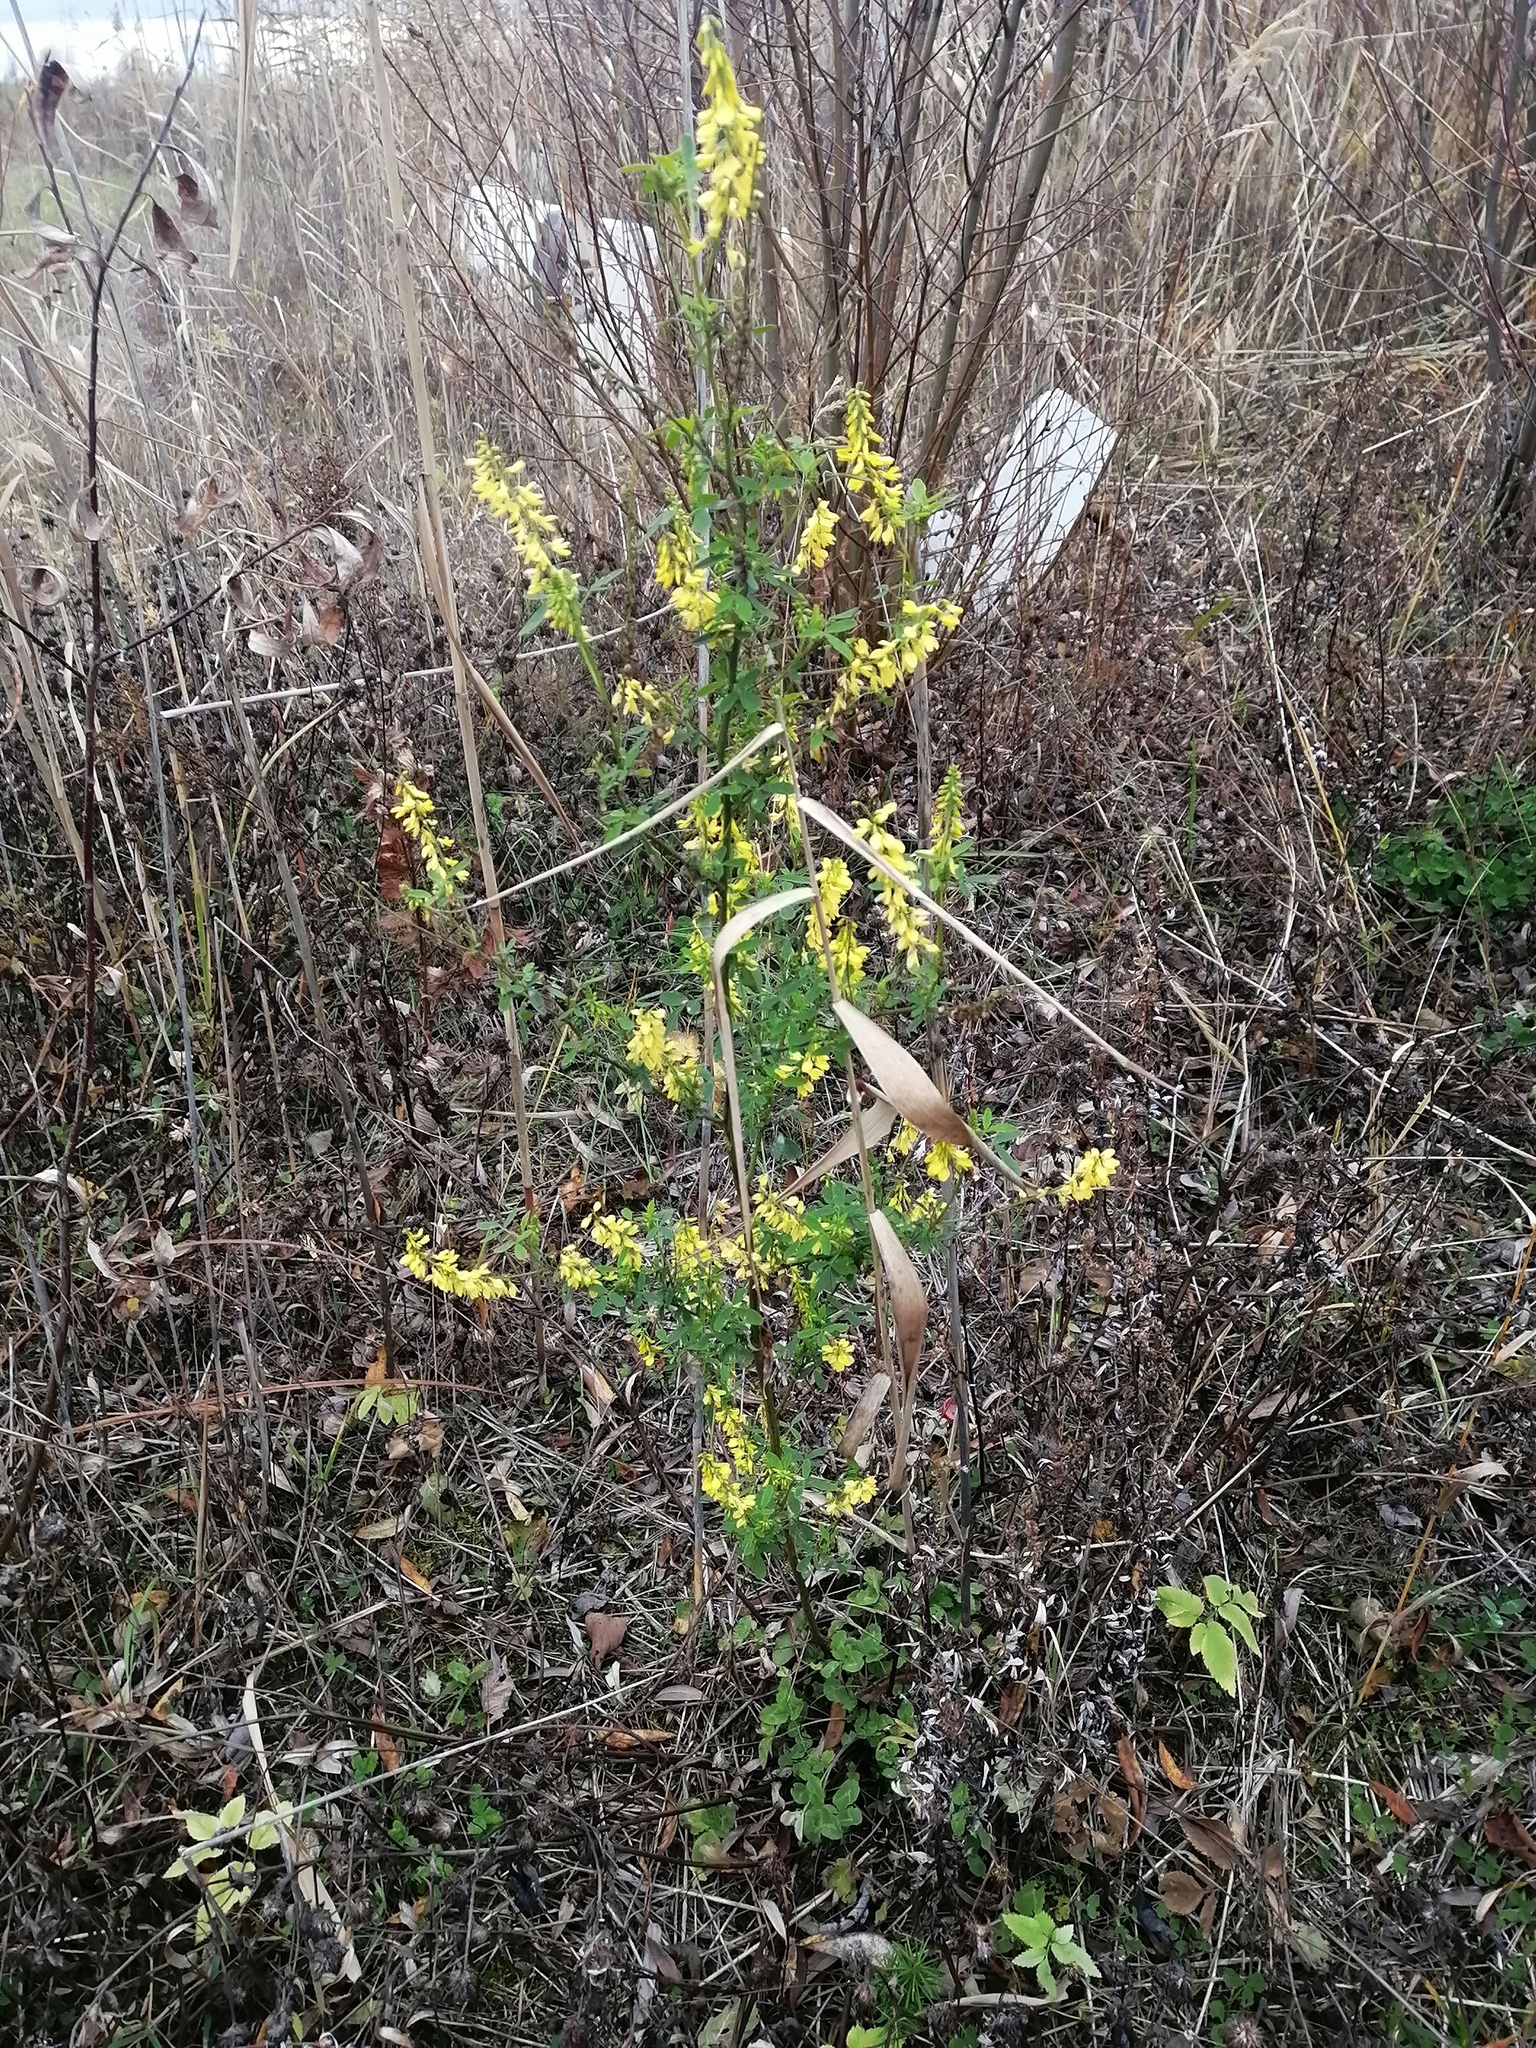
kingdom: Plantae
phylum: Tracheophyta
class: Magnoliopsida
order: Fabales
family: Fabaceae
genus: Melilotus
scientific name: Melilotus officinalis
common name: Sweetclover
